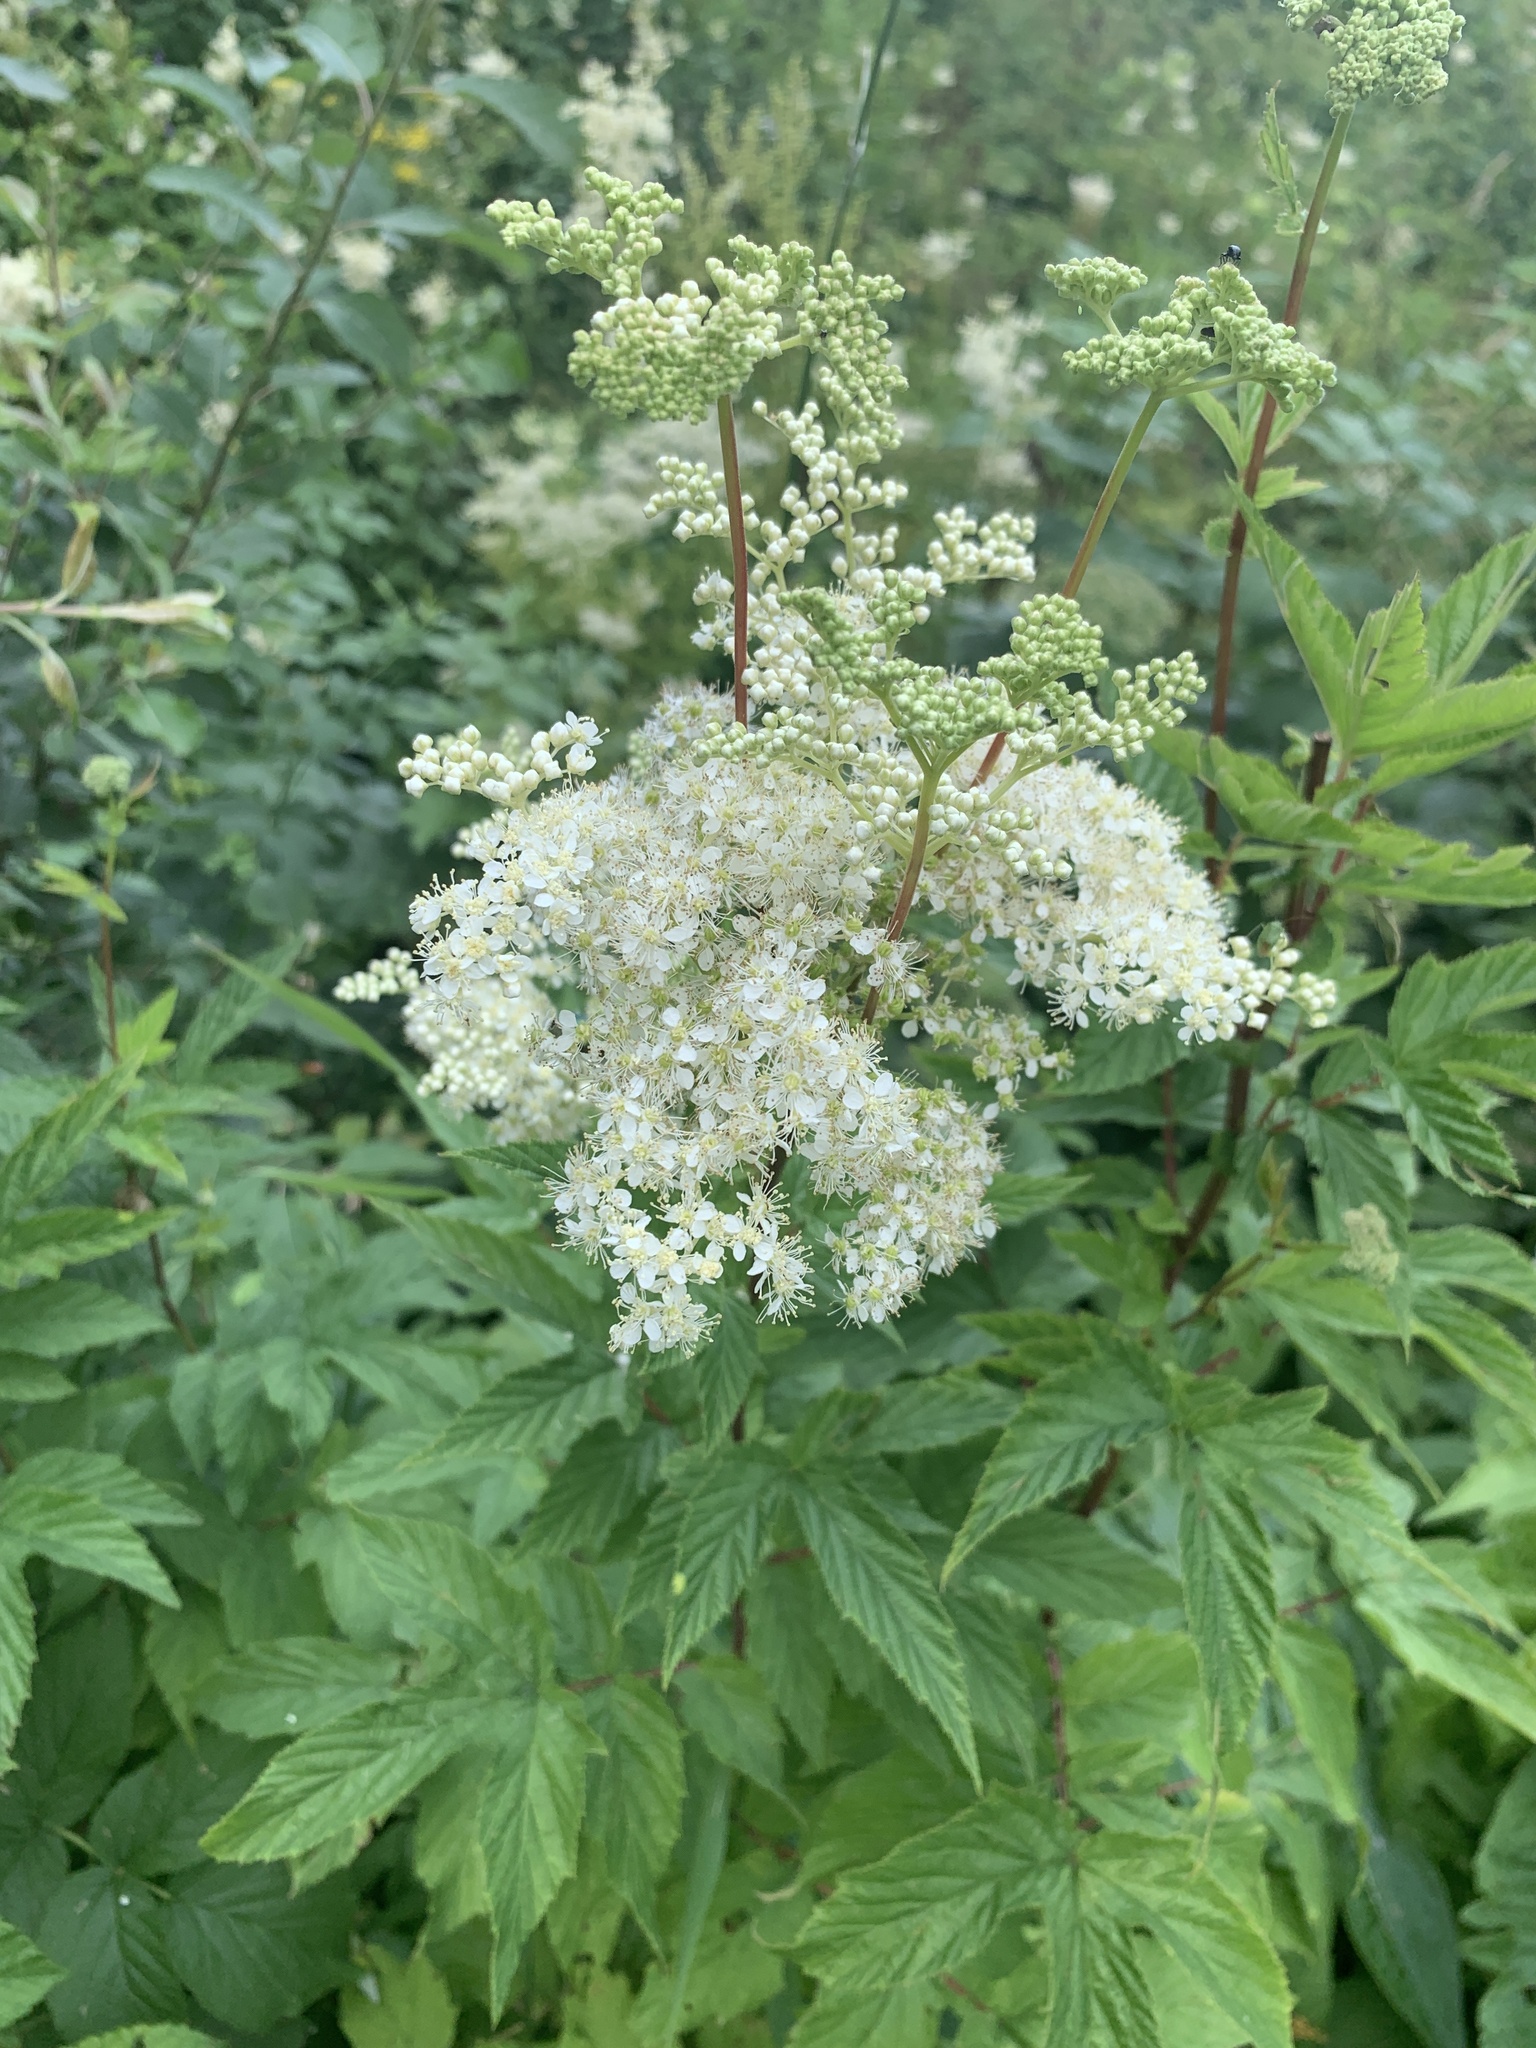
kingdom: Plantae
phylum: Tracheophyta
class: Magnoliopsida
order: Rosales
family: Rosaceae
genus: Filipendula
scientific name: Filipendula ulmaria
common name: Meadowsweet
